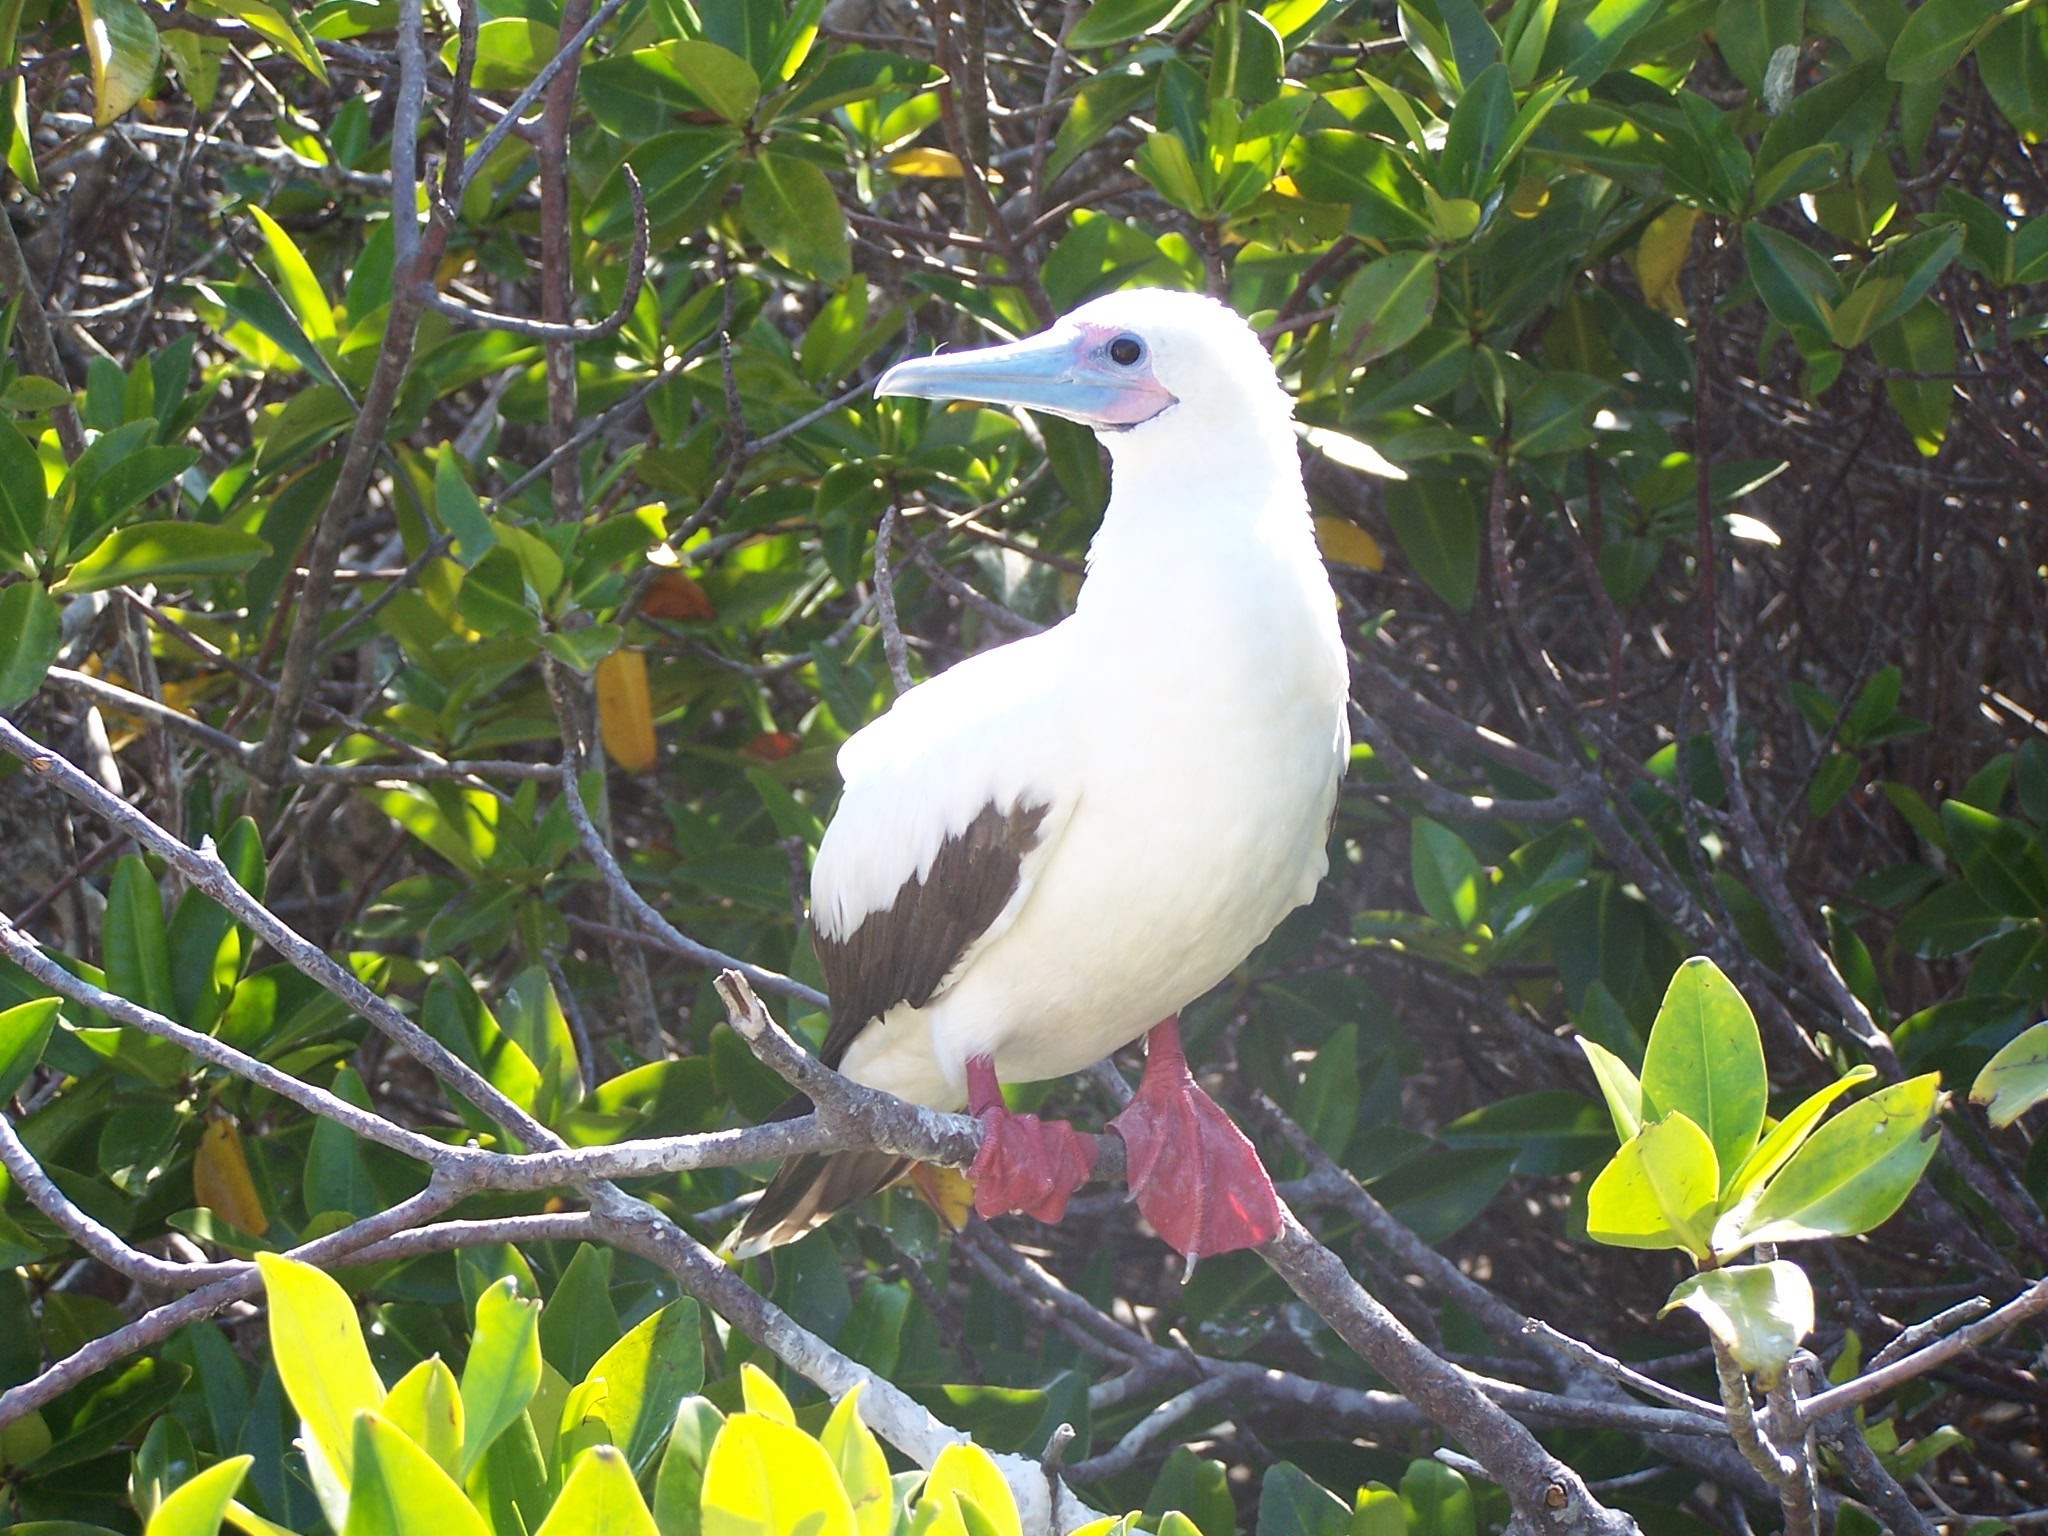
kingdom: Animalia
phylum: Chordata
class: Aves
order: Suliformes
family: Sulidae
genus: Sula
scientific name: Sula sula
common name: Red-footed booby
